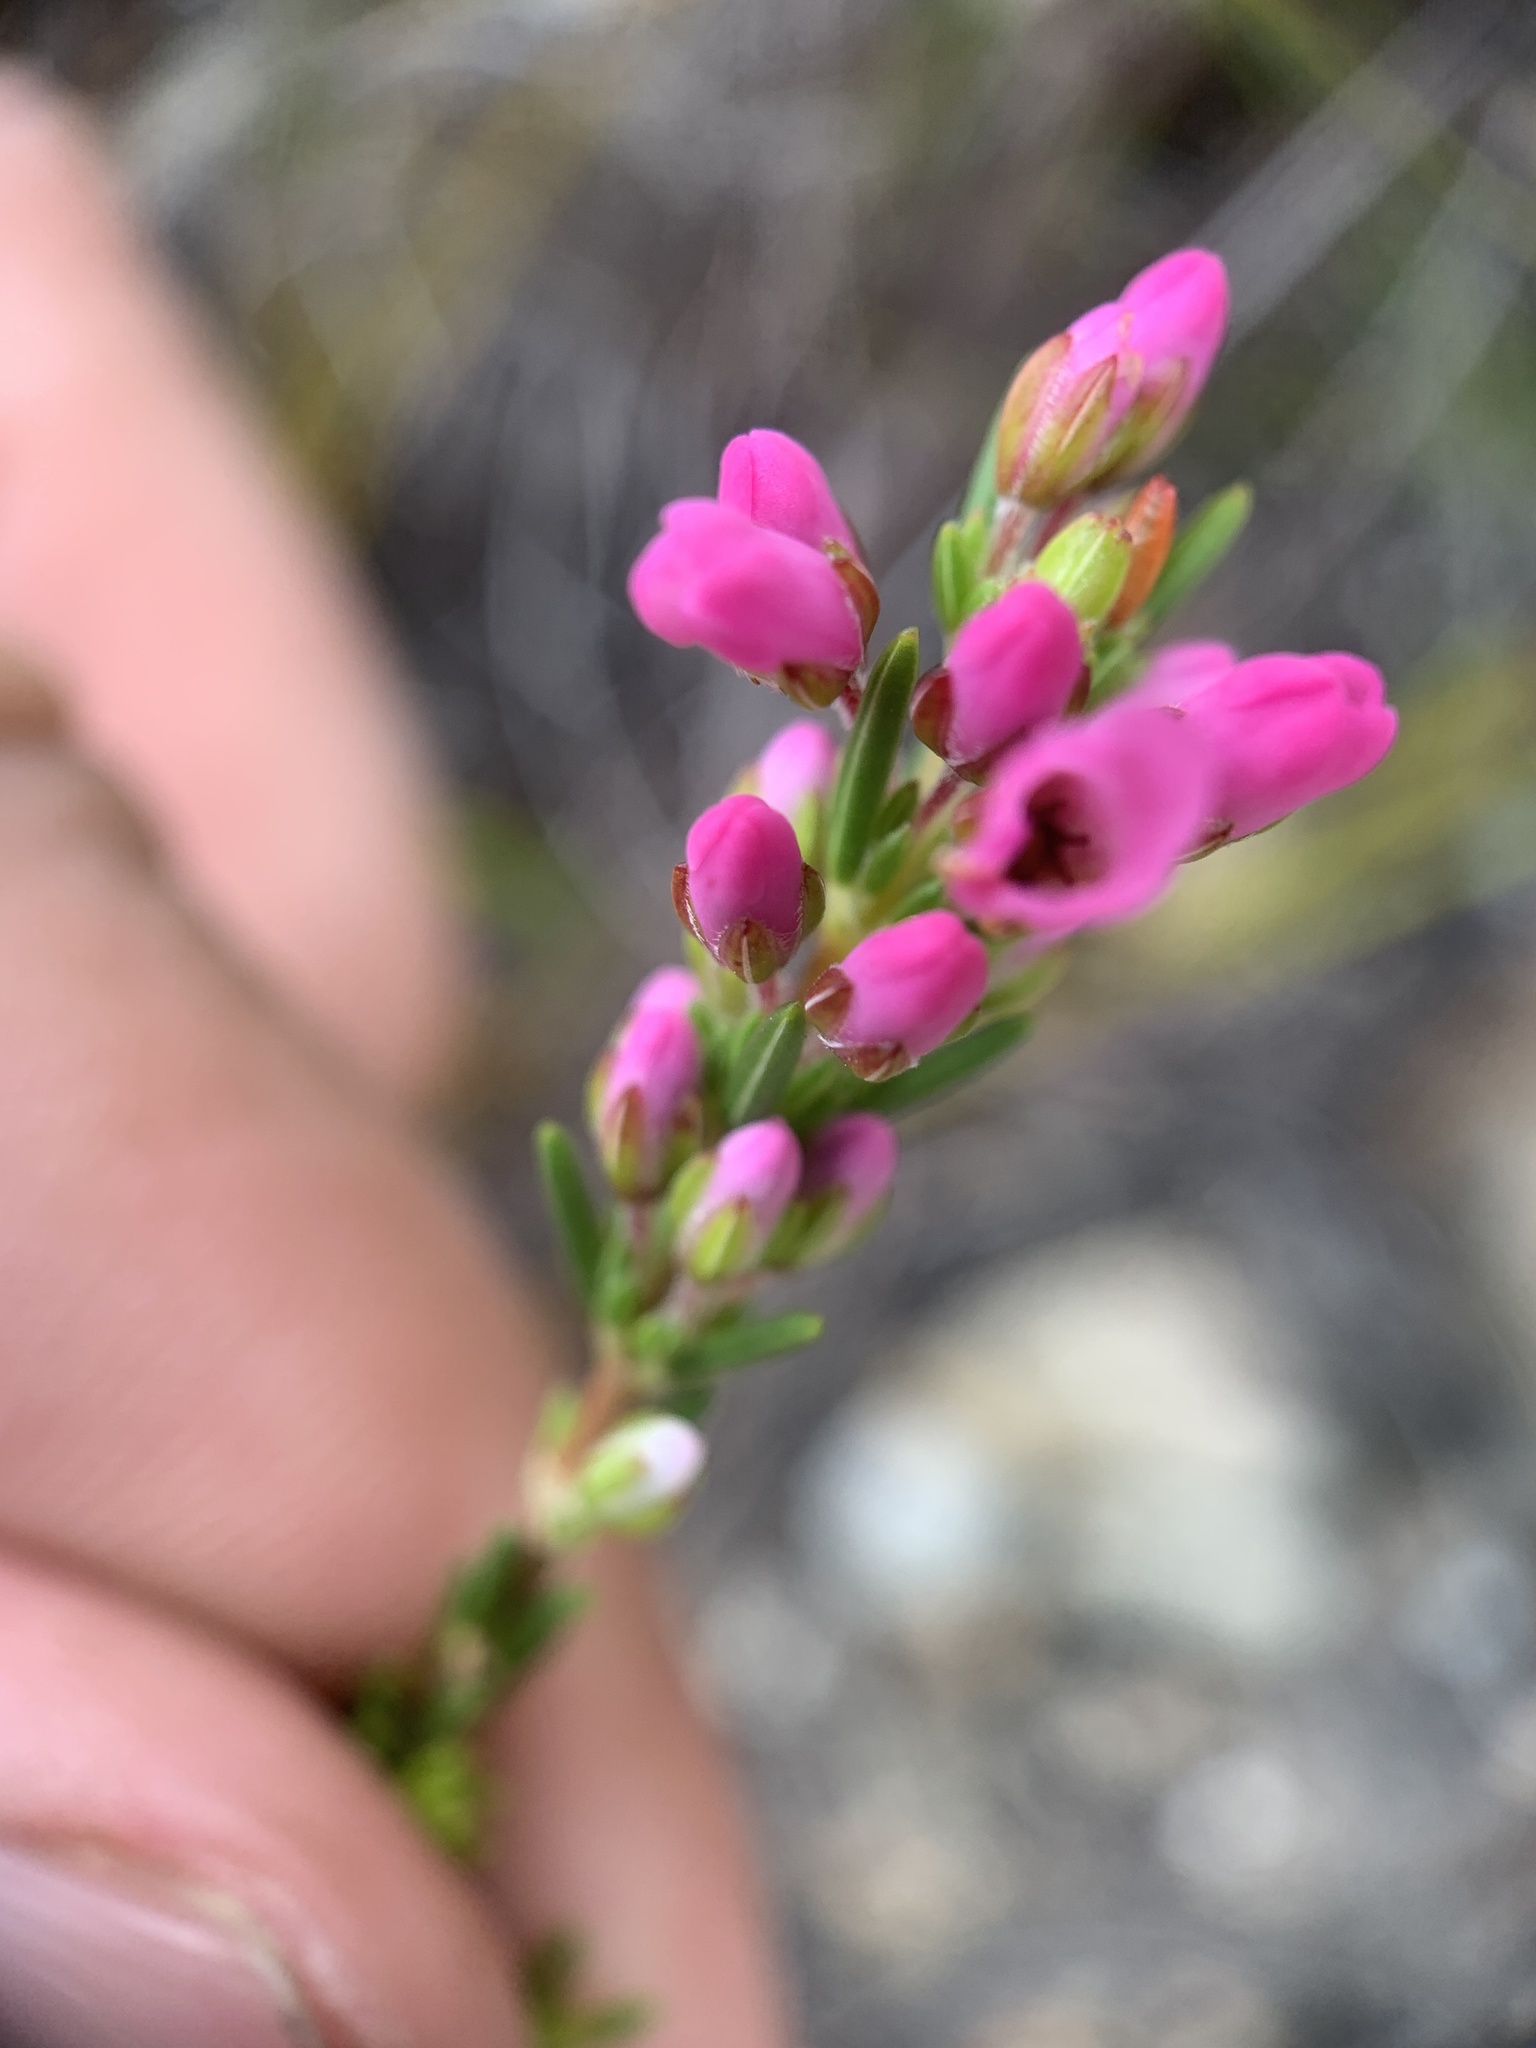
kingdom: Plantae
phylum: Tracheophyta
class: Magnoliopsida
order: Ericales
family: Ericaceae
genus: Erica
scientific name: Erica pulchella
